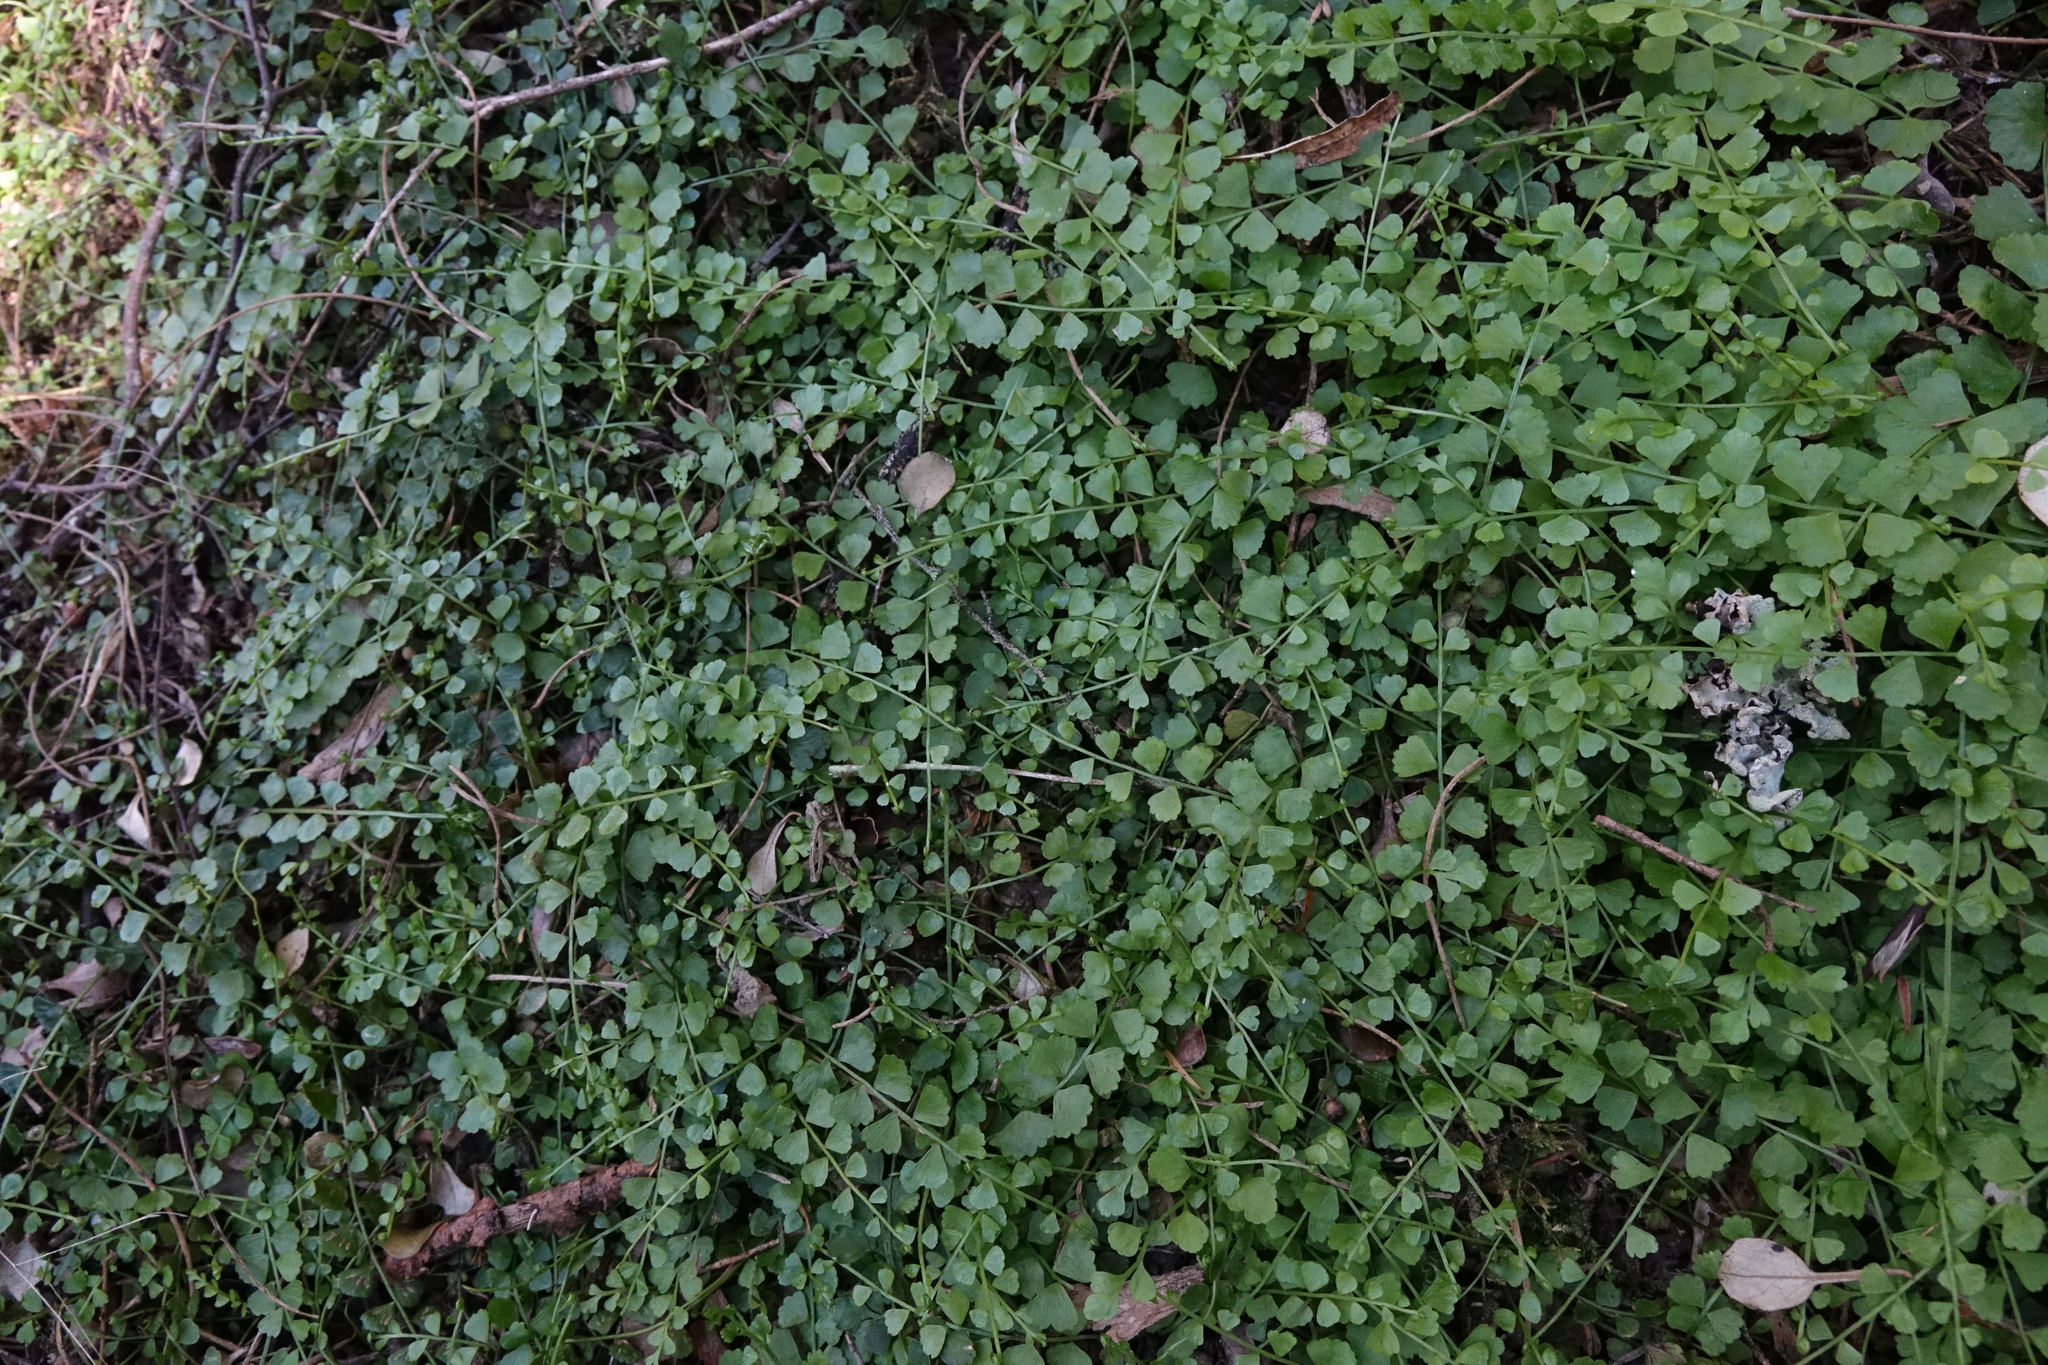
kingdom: Plantae
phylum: Tracheophyta
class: Polypodiopsida
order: Polypodiales
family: Aspleniaceae
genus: Asplenium
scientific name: Asplenium flabellifolium
